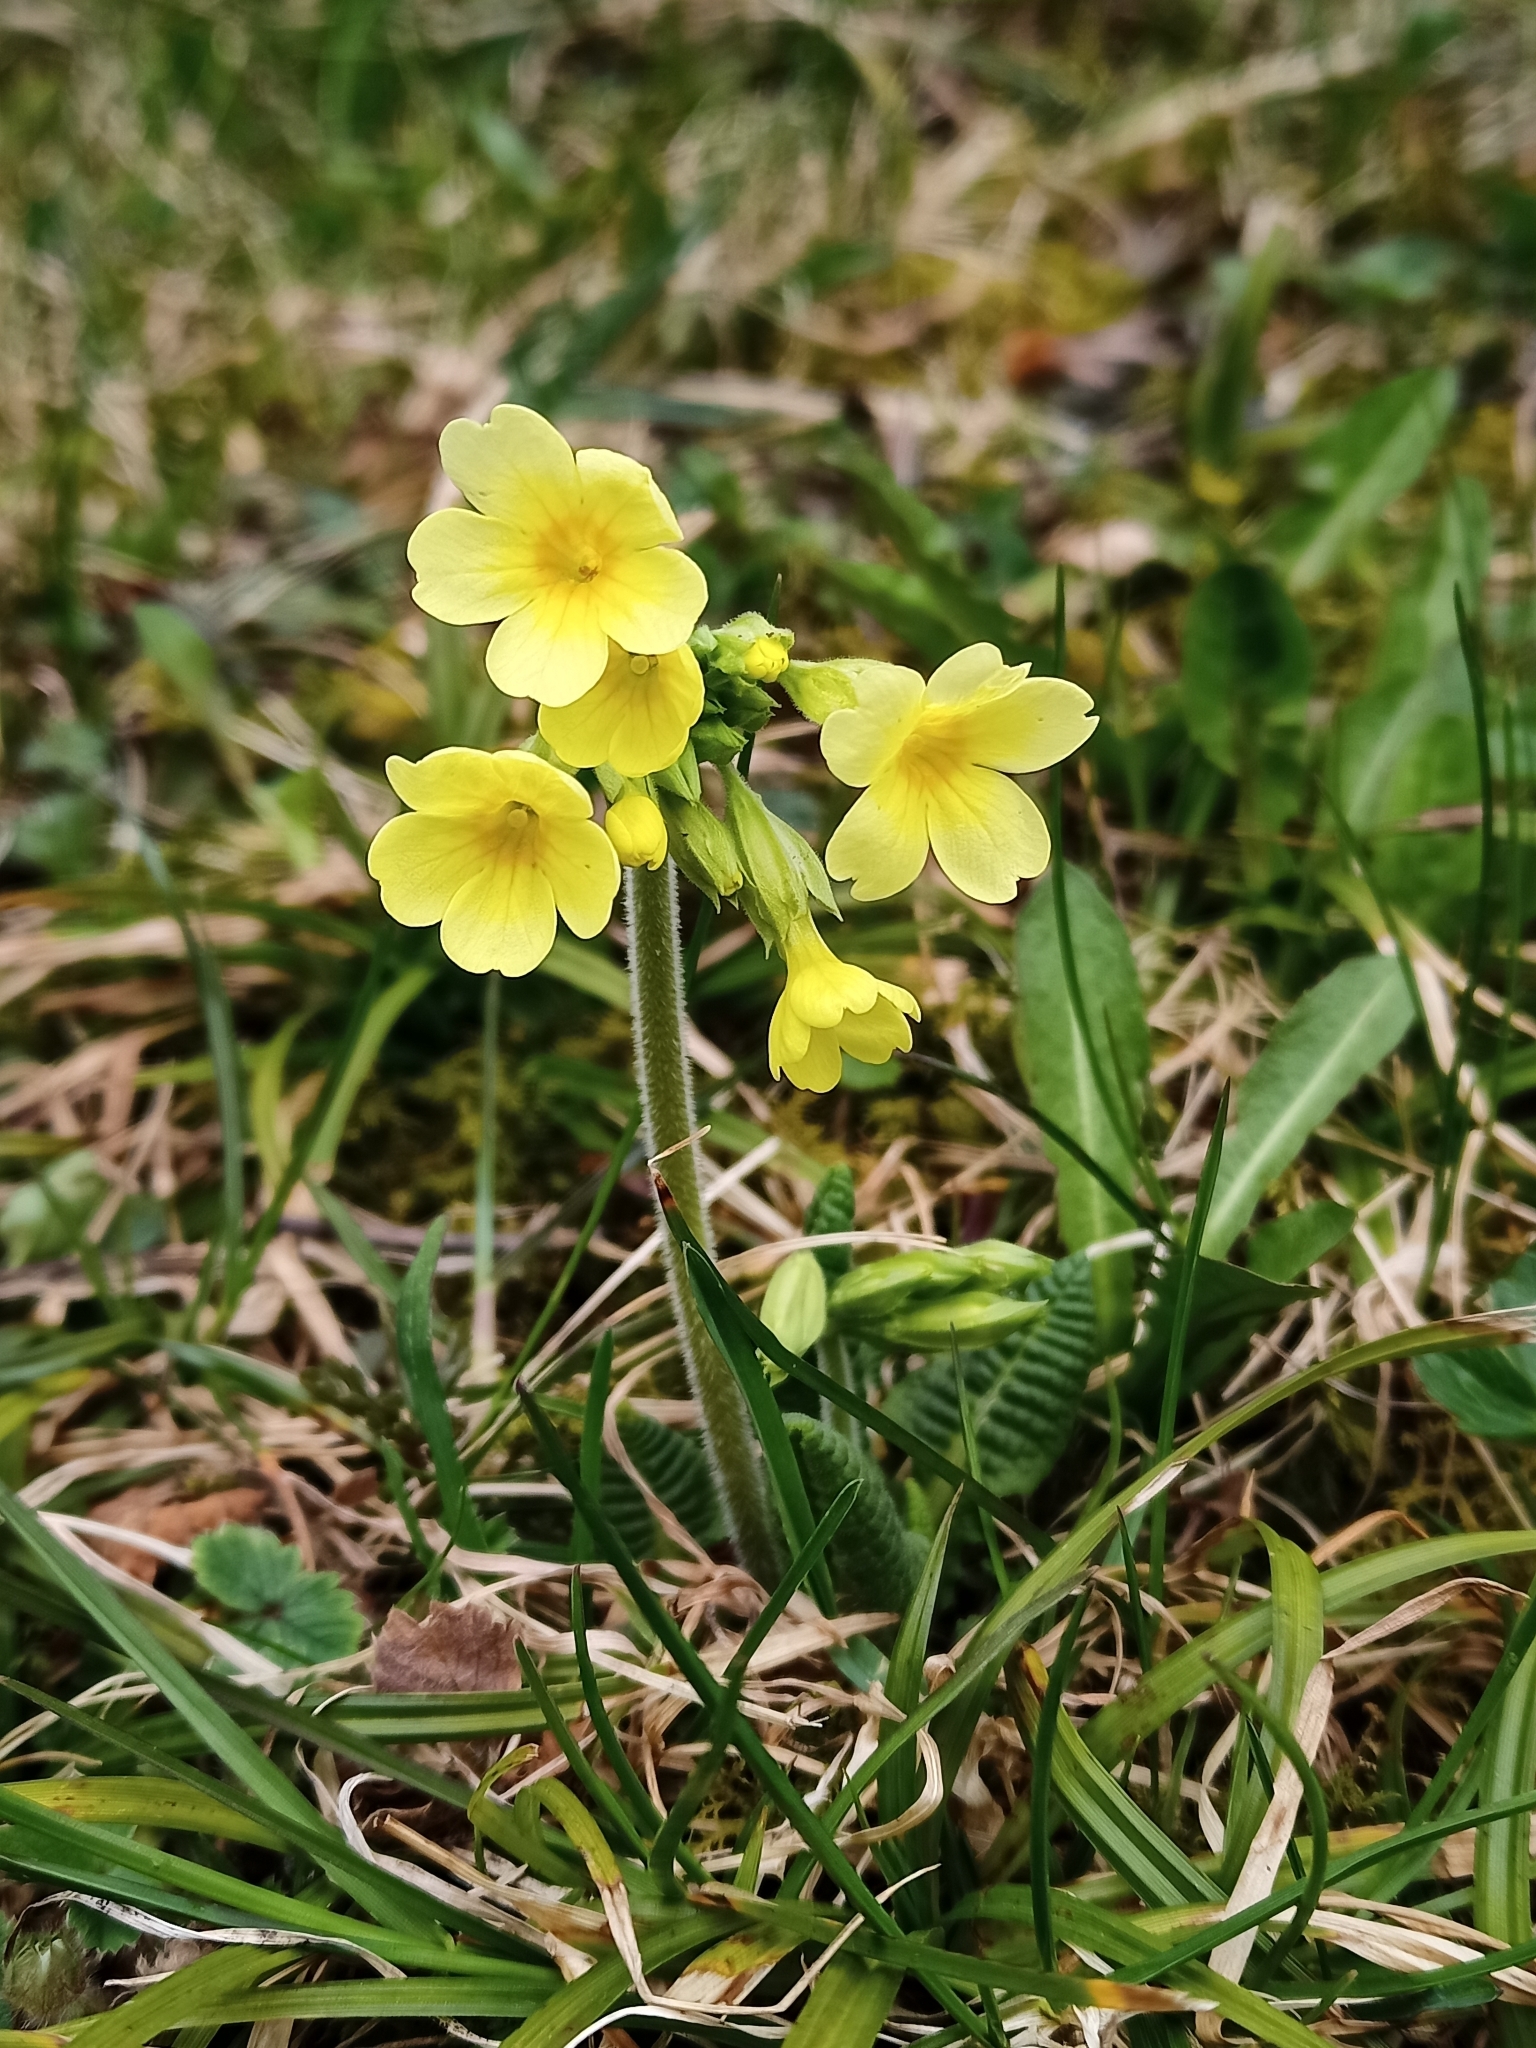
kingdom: Plantae
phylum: Tracheophyta
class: Magnoliopsida
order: Ericales
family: Primulaceae
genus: Primula
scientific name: Primula elatior
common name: Oxlip
